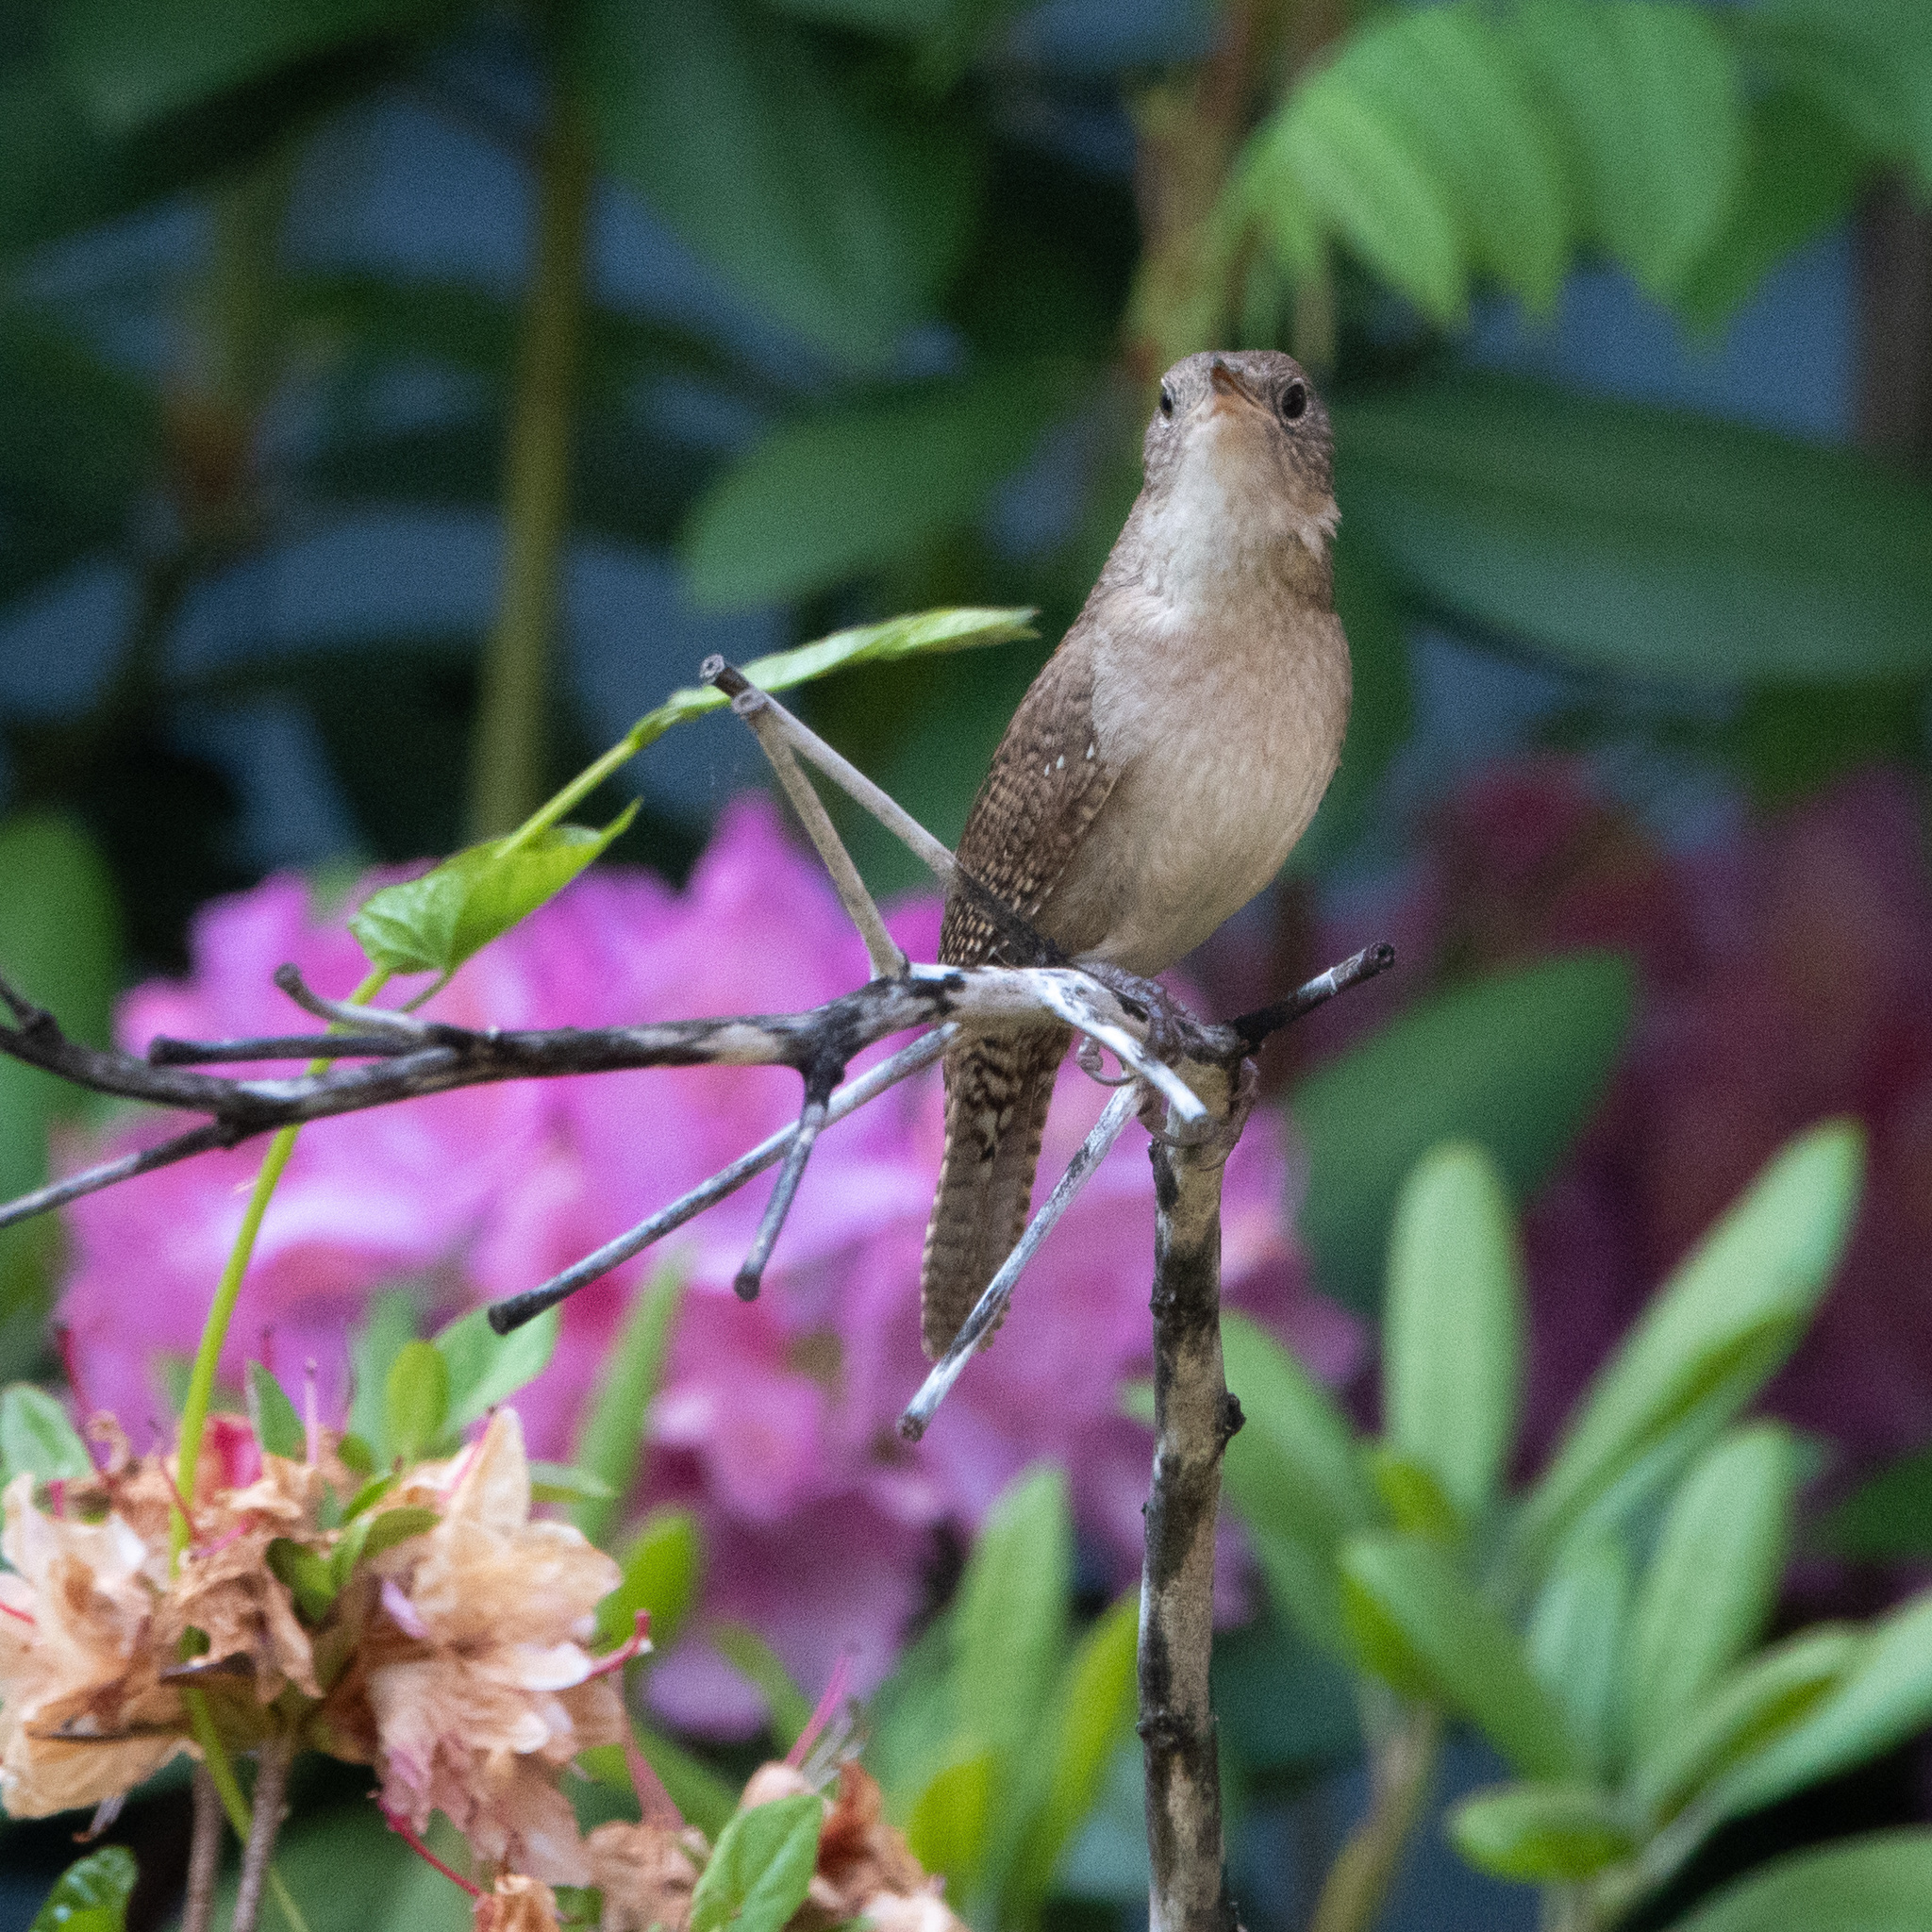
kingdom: Animalia
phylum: Chordata
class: Aves
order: Passeriformes
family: Troglodytidae
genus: Troglodytes
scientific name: Troglodytes aedon
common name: House wren
